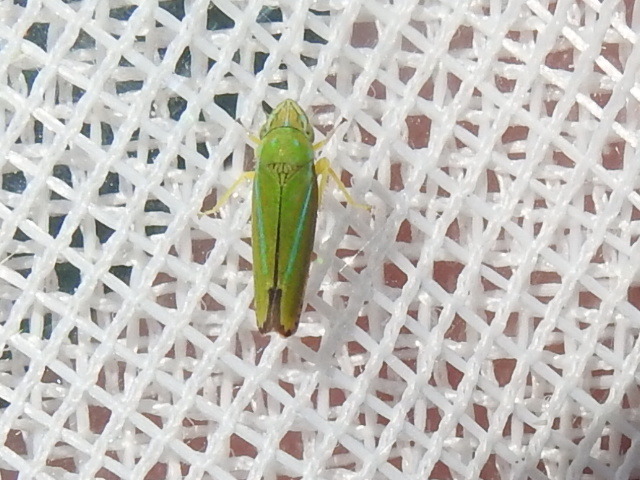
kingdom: Animalia
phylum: Arthropoda
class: Insecta
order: Hemiptera
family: Cicadellidae
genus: Graphocephala
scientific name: Graphocephala versuta
